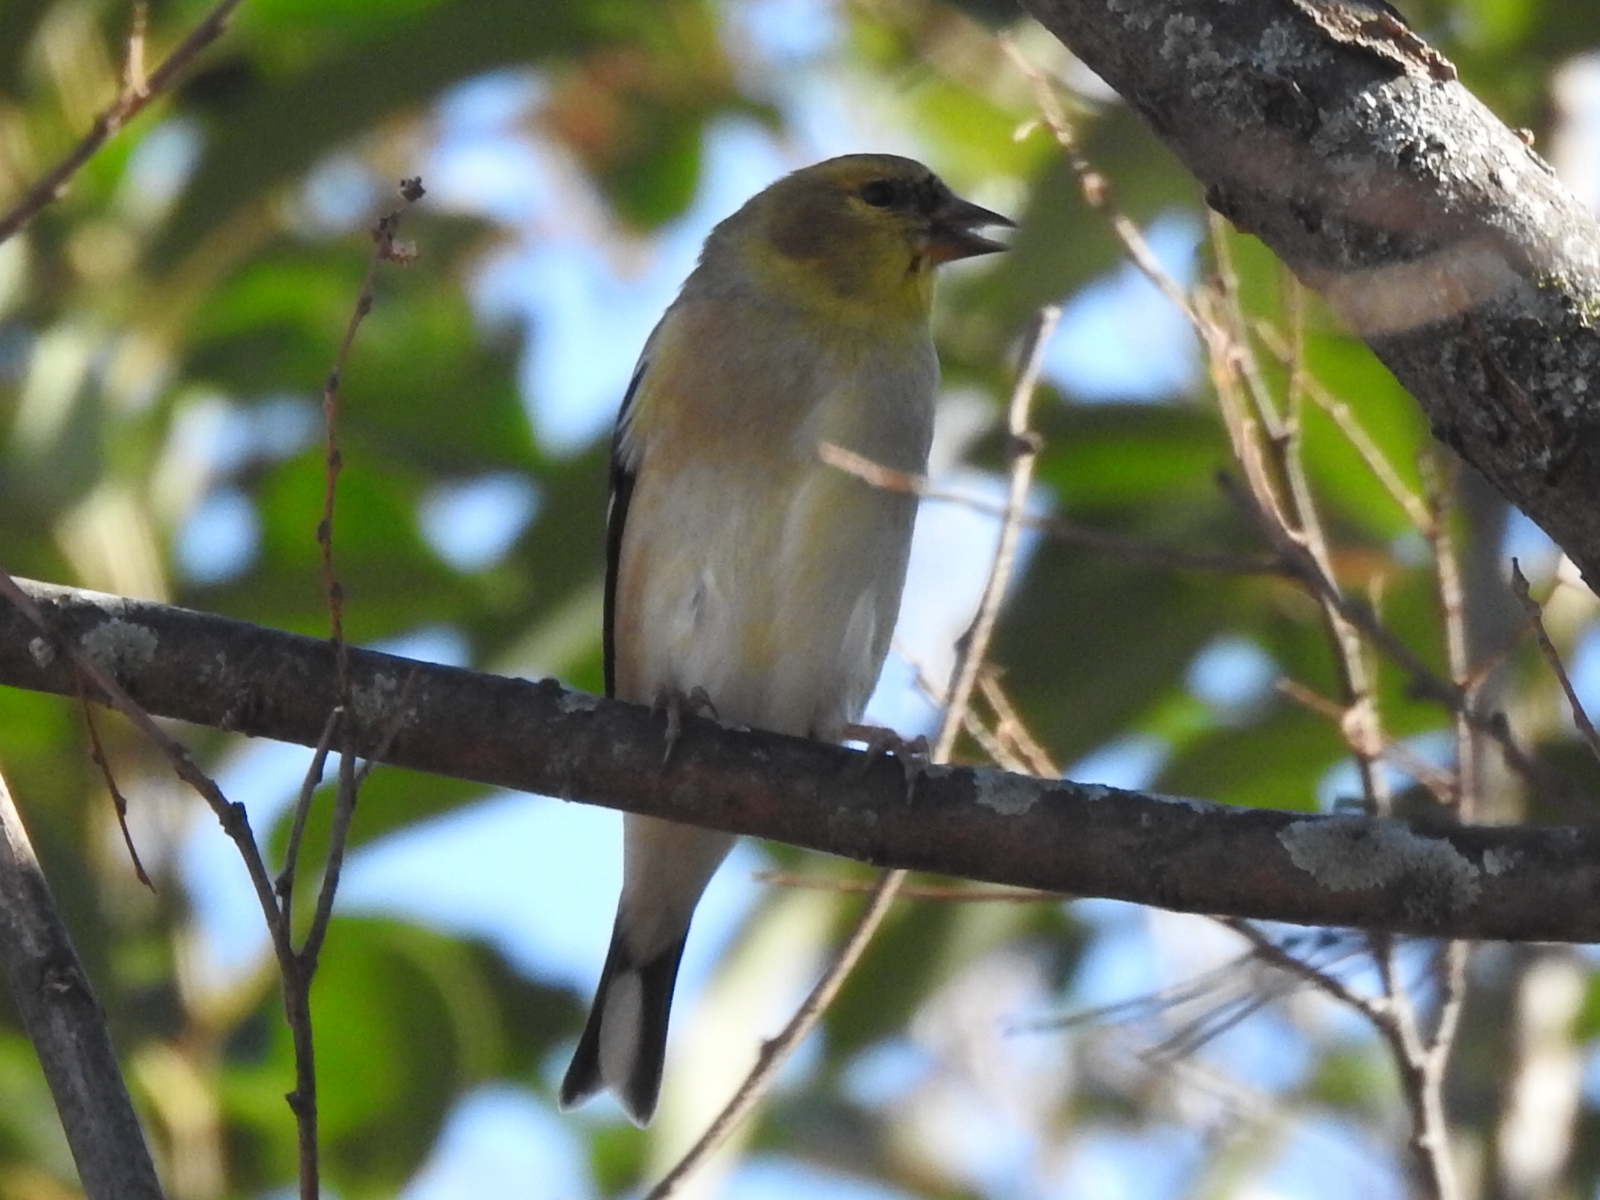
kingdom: Animalia
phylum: Chordata
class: Aves
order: Passeriformes
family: Fringillidae
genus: Spinus
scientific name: Spinus tristis
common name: American goldfinch
